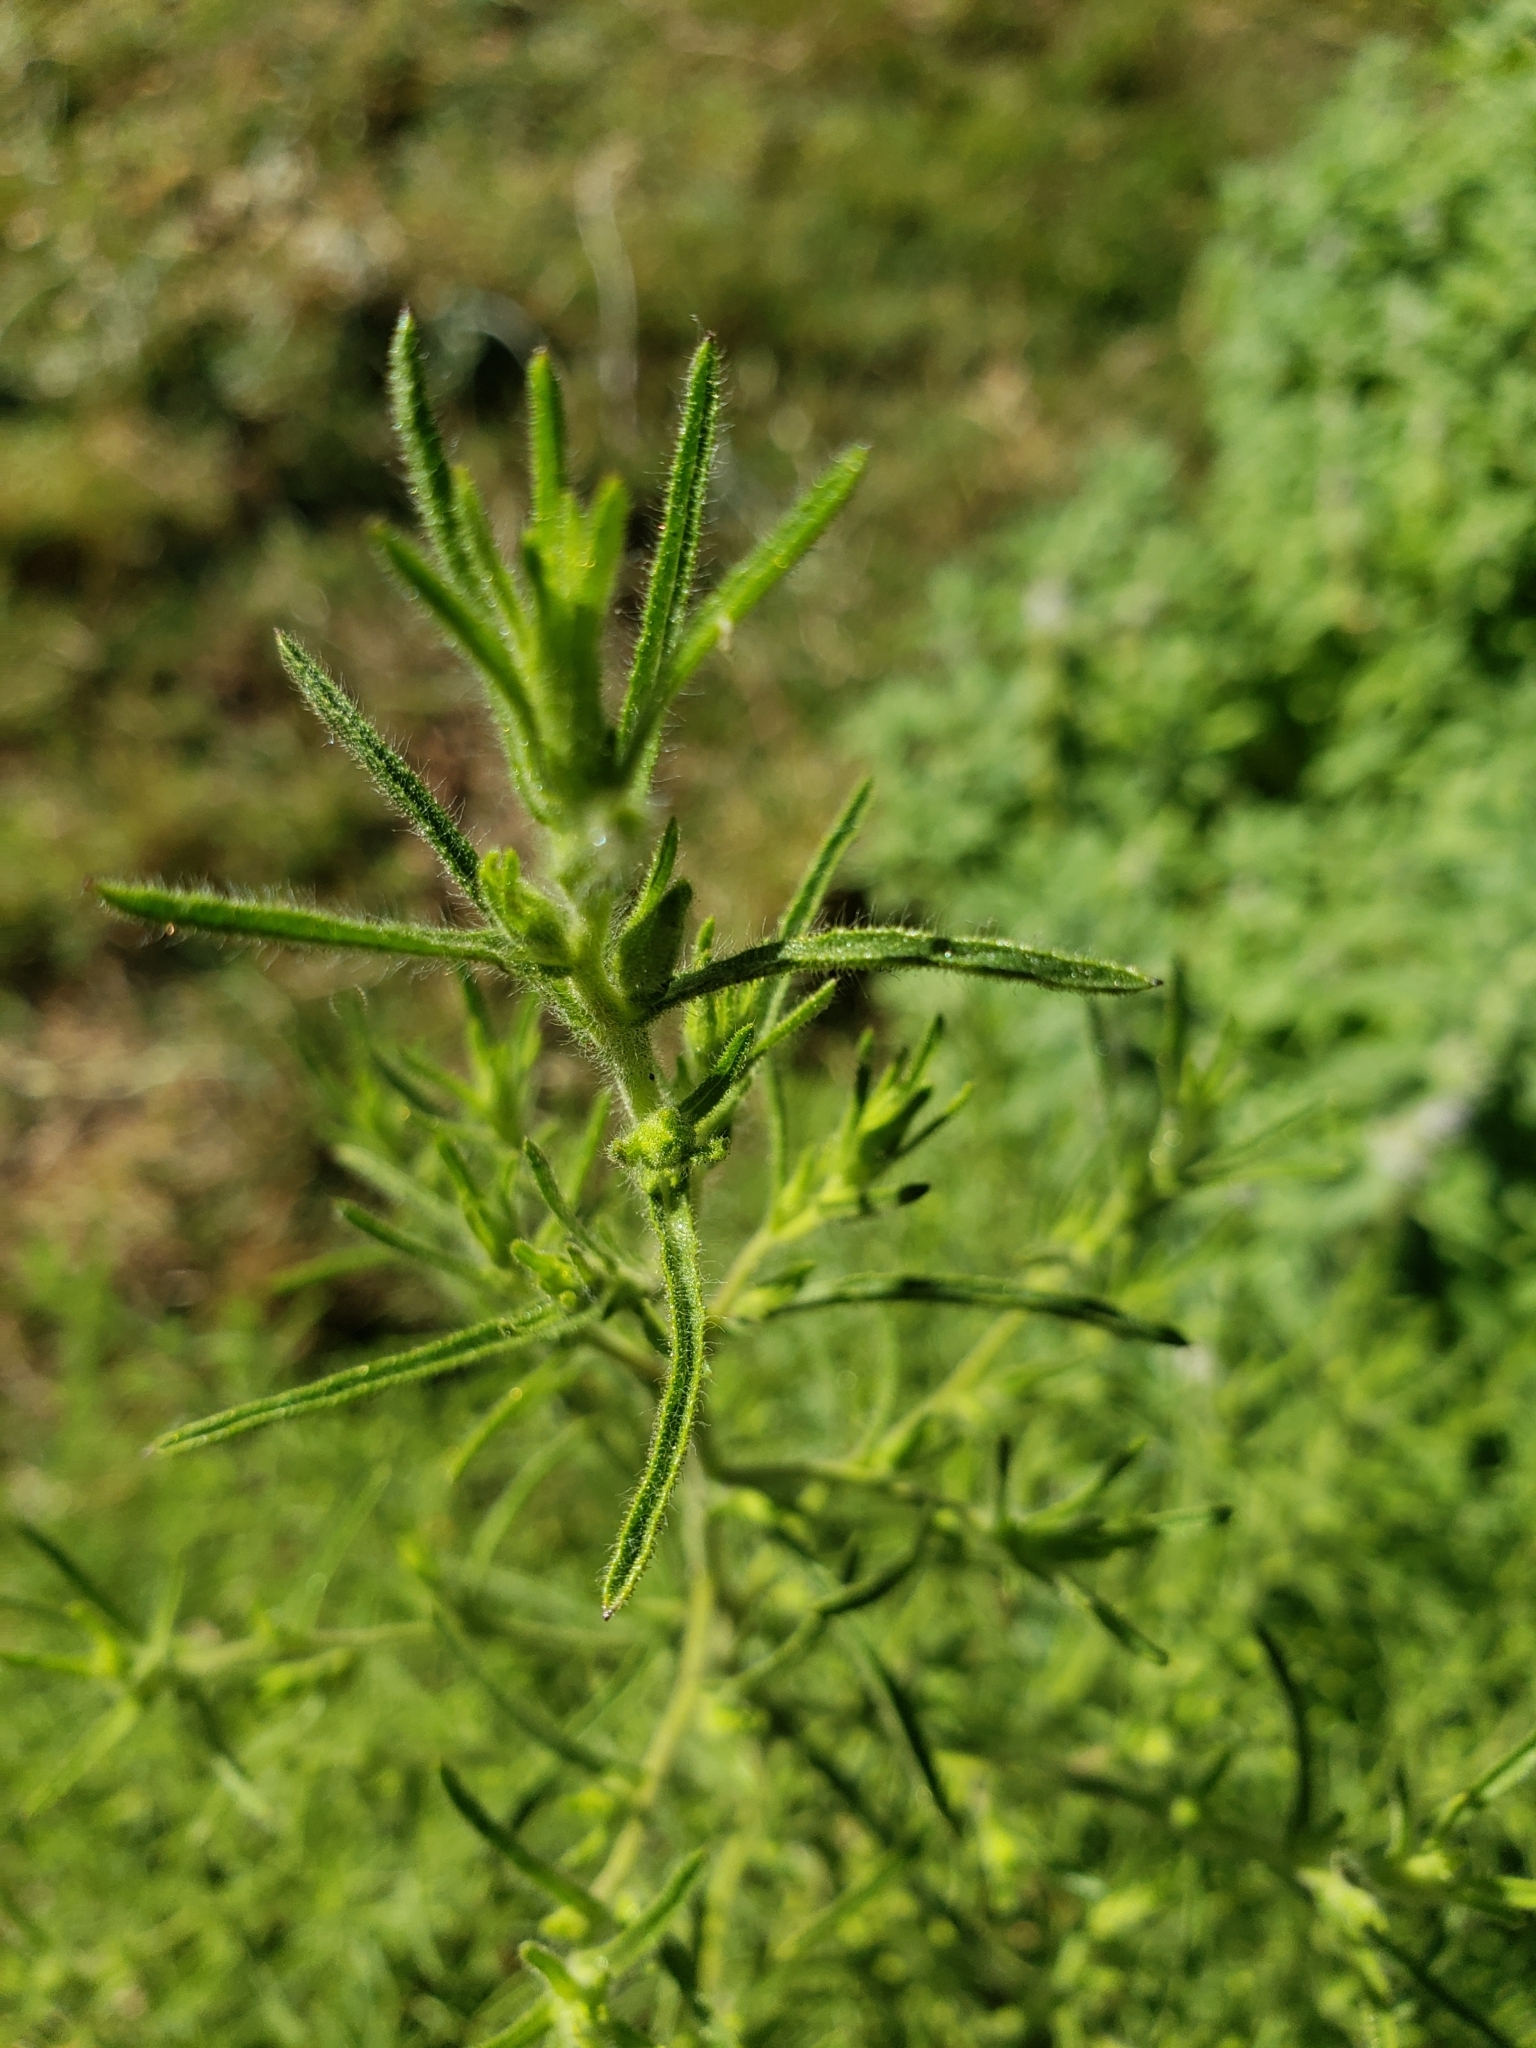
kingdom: Plantae
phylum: Tracheophyta
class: Magnoliopsida
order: Asterales
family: Asteraceae
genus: Dittrichia
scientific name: Dittrichia graveolens
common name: Stinking fleabane
